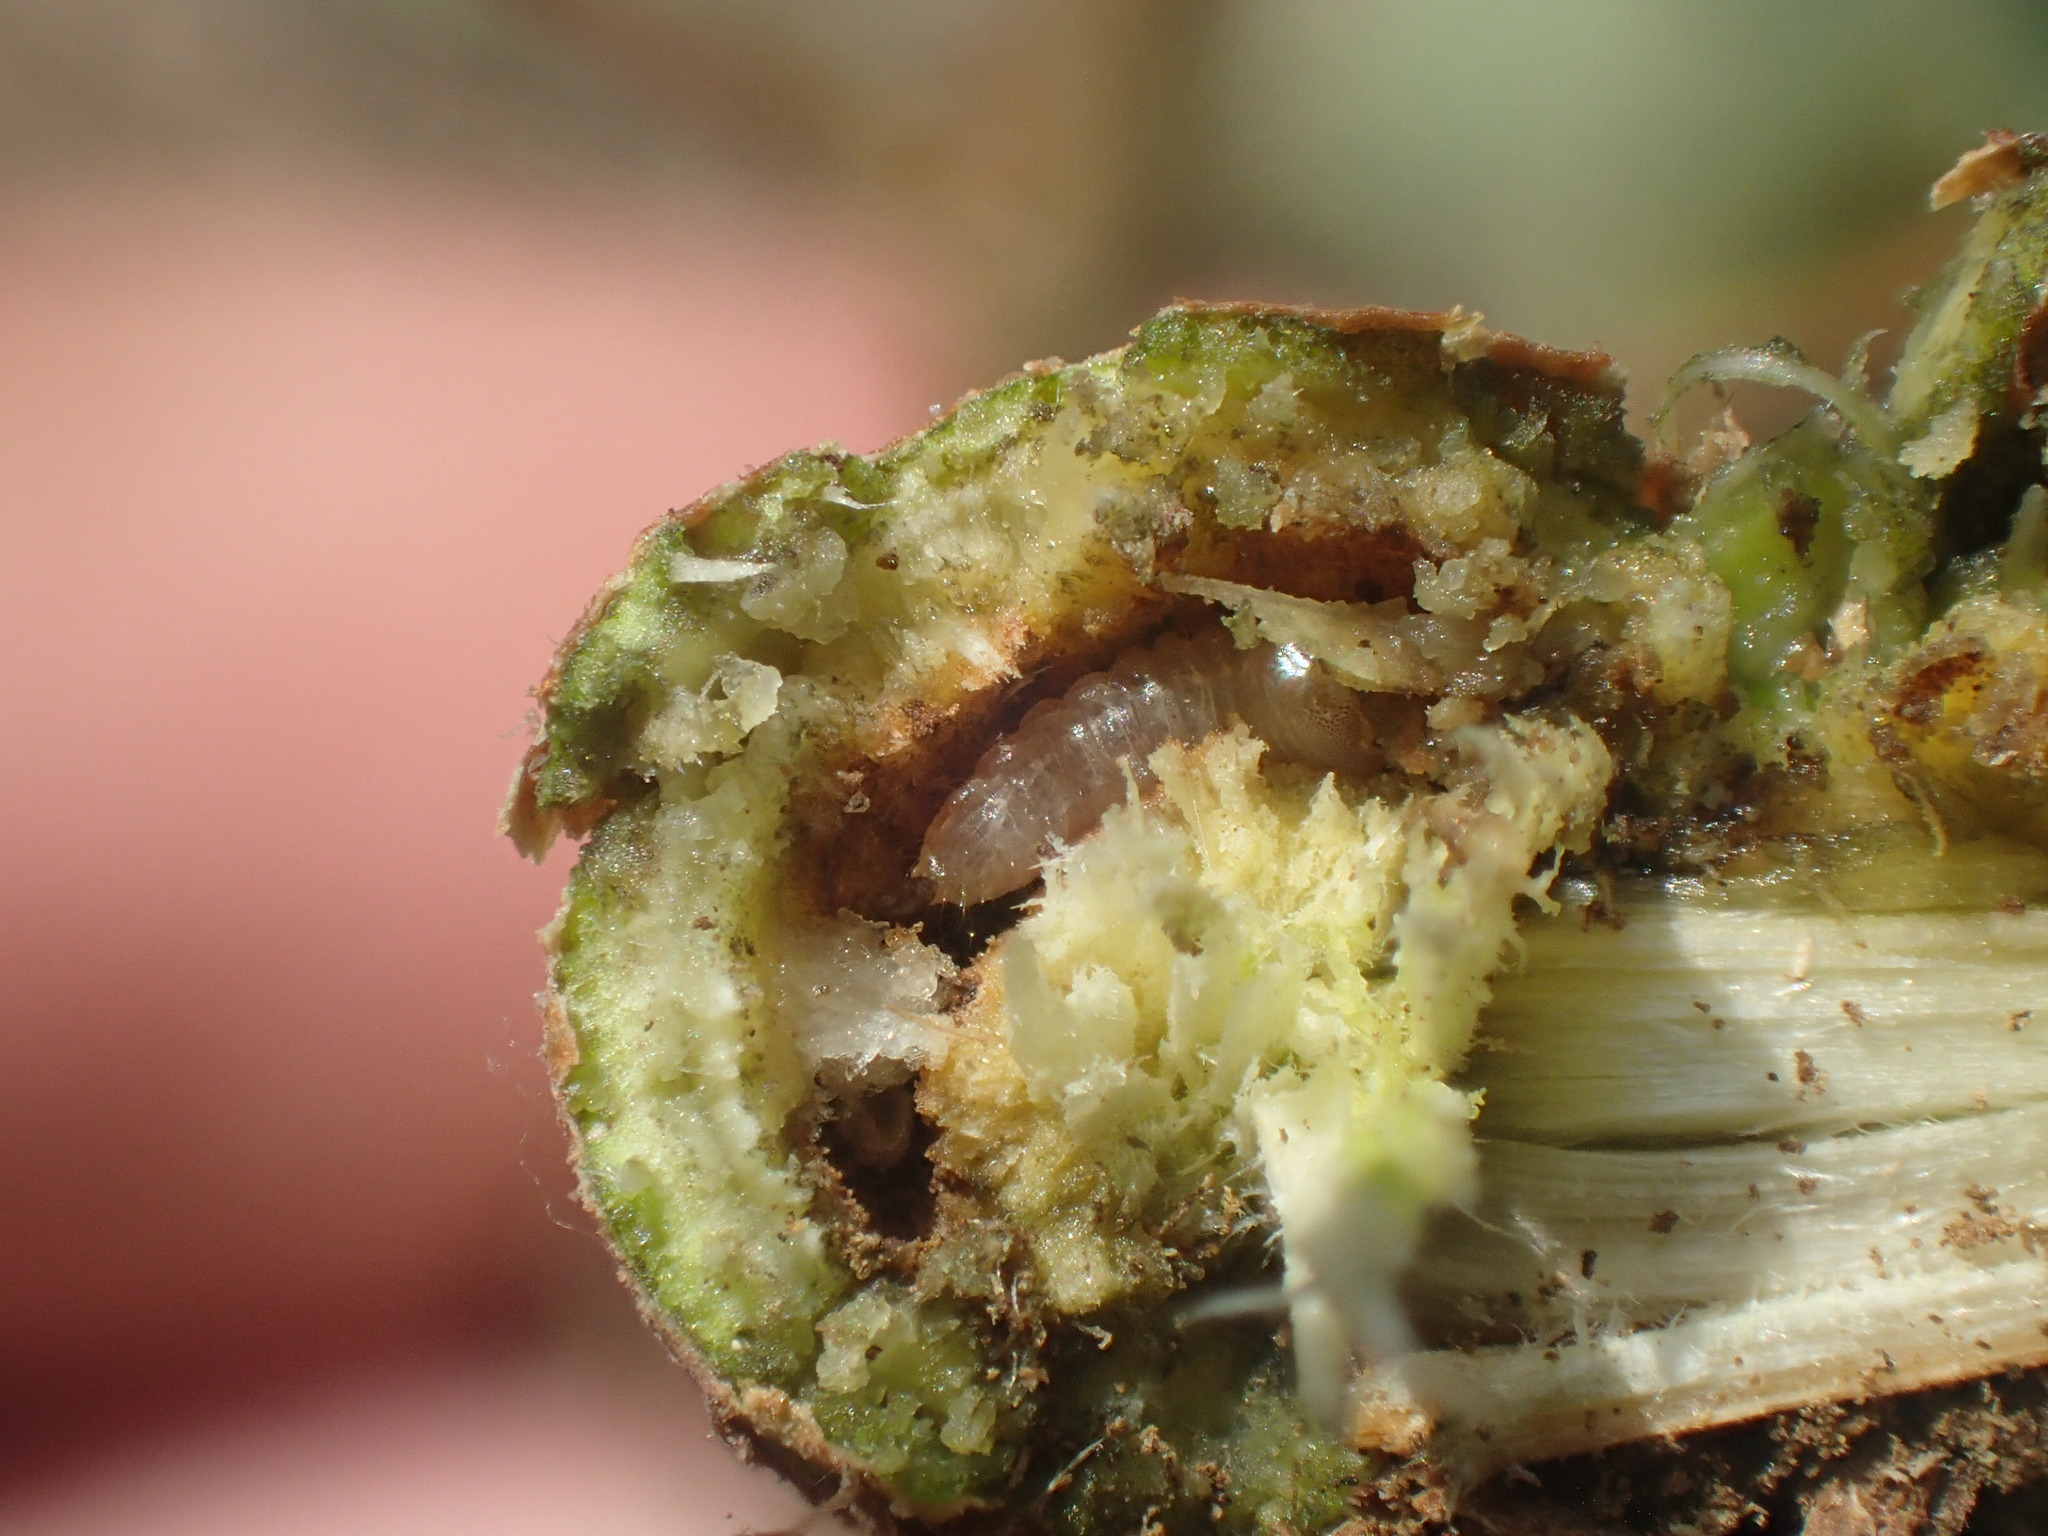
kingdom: Animalia
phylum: Arthropoda
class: Insecta
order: Coleoptera
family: Cerambycidae
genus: Saperda
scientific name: Saperda populnea
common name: Small poplar borer
